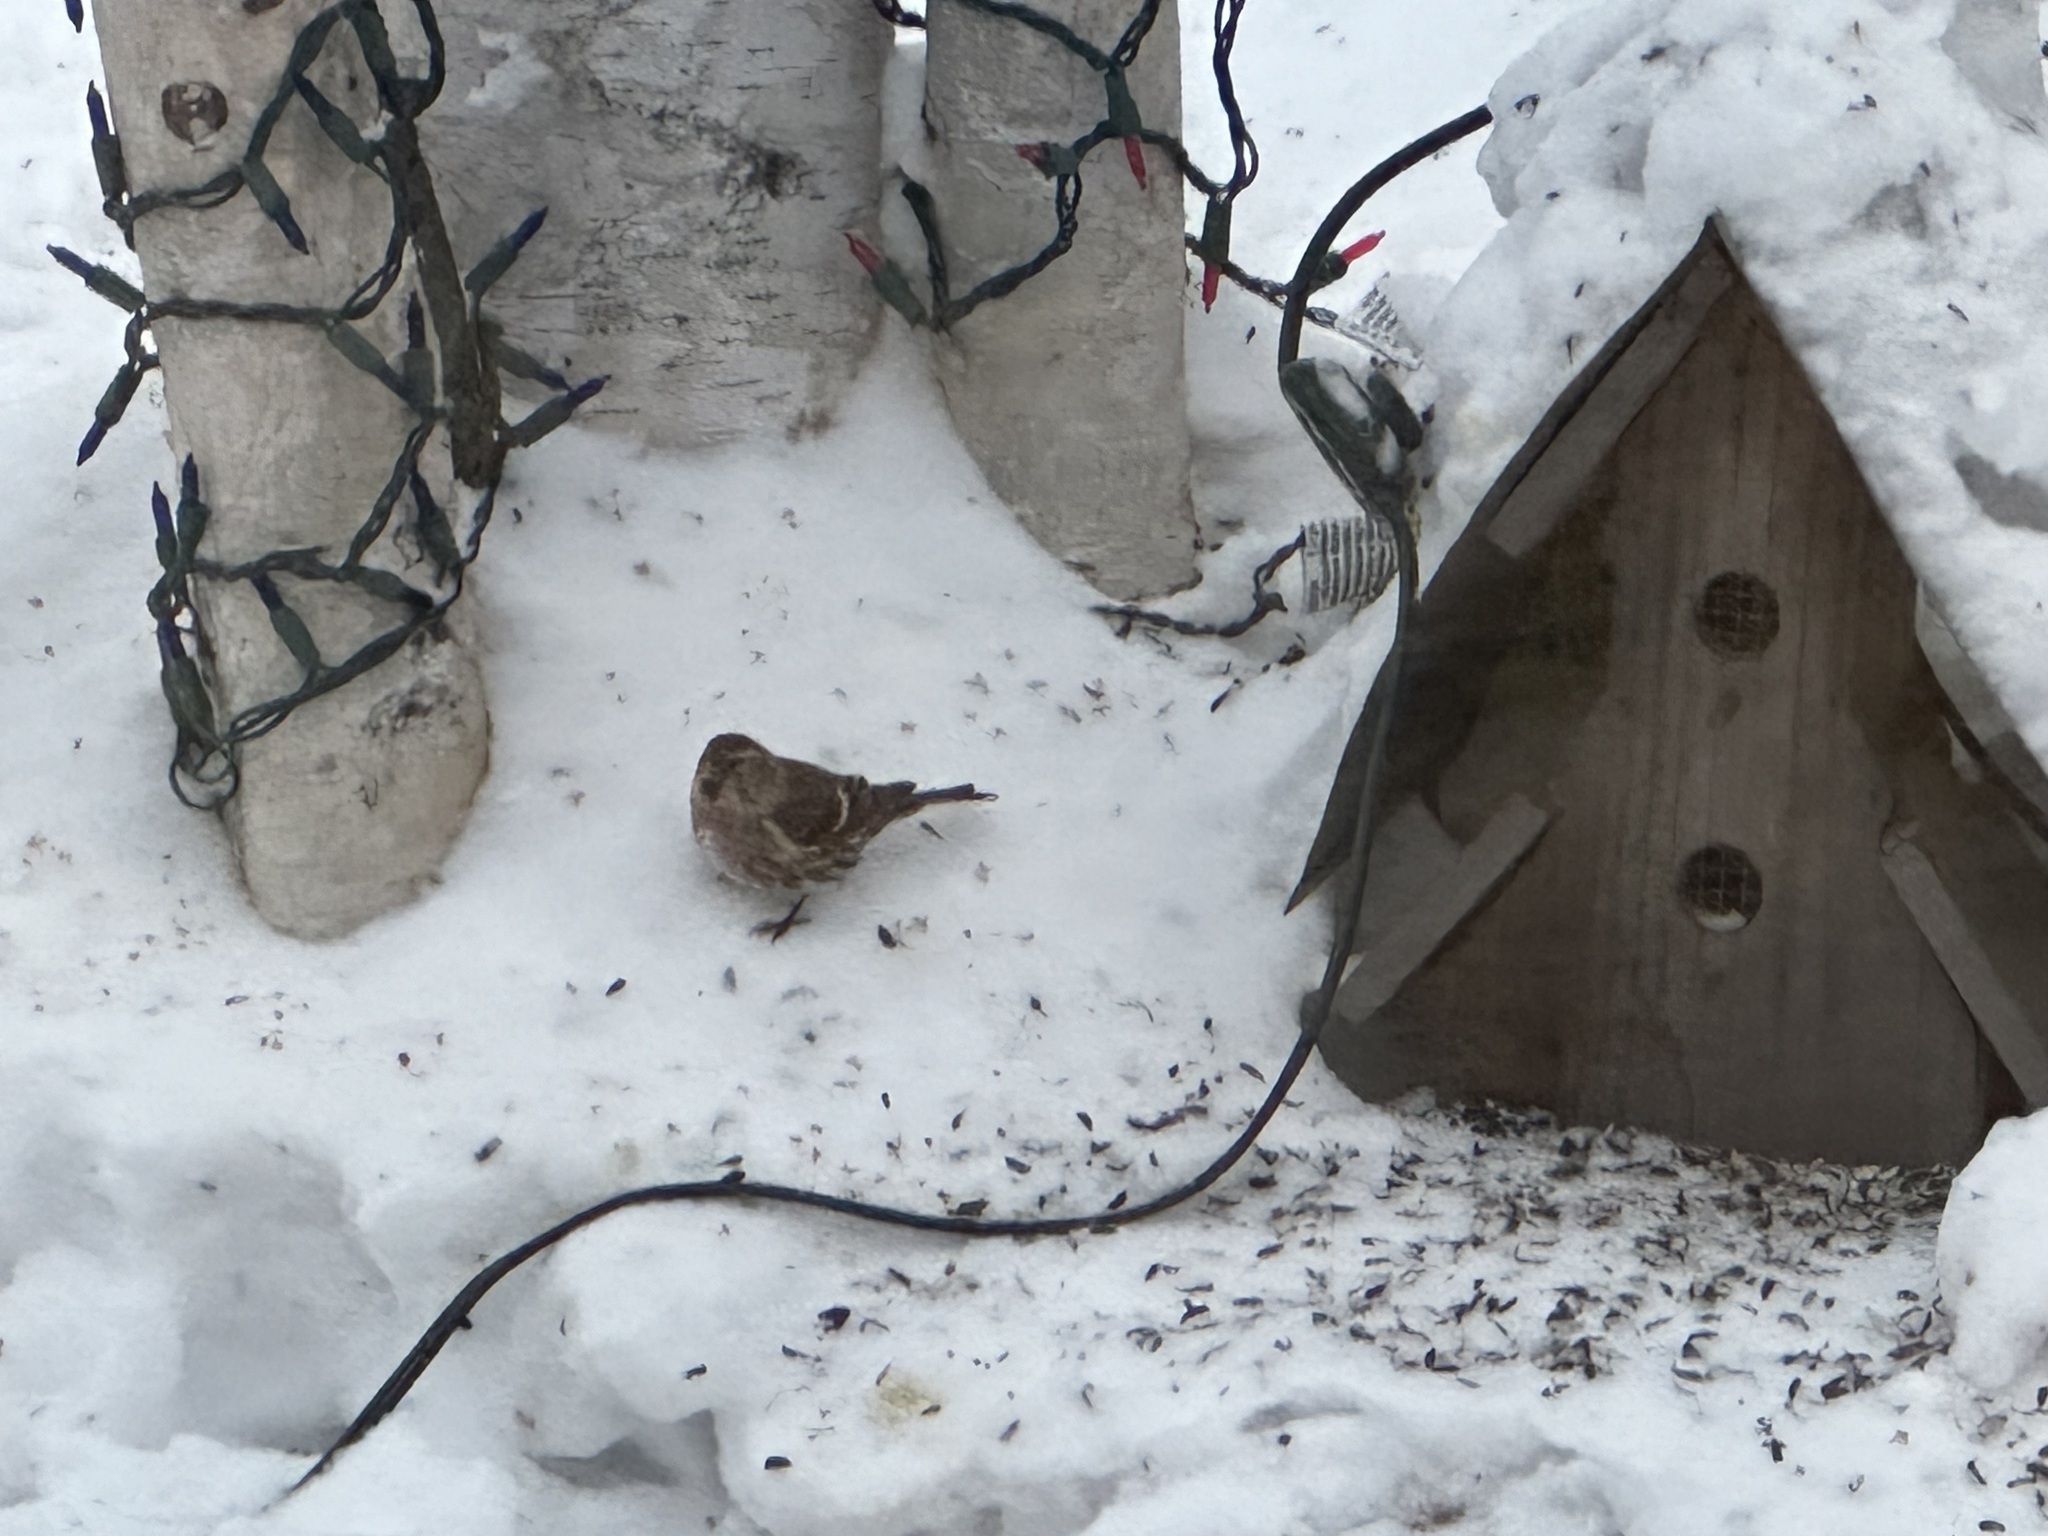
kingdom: Animalia
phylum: Chordata
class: Aves
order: Passeriformes
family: Fringillidae
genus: Acanthis
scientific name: Acanthis flammea
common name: Common redpoll
